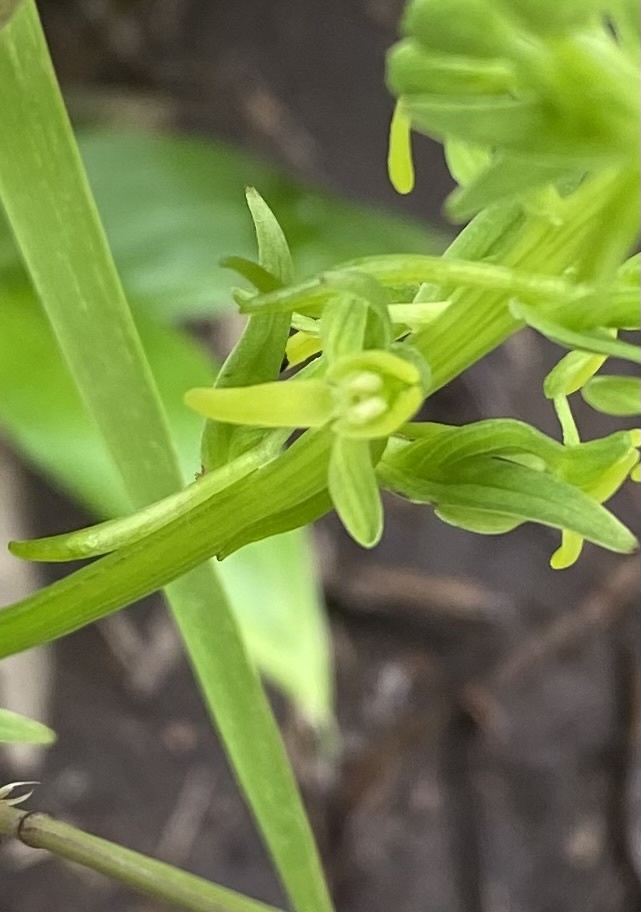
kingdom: Plantae
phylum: Tracheophyta
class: Liliopsida
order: Asparagales
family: Orchidaceae
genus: Platanthera
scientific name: Platanthera tipuloides
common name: Aleutian bog orchid
